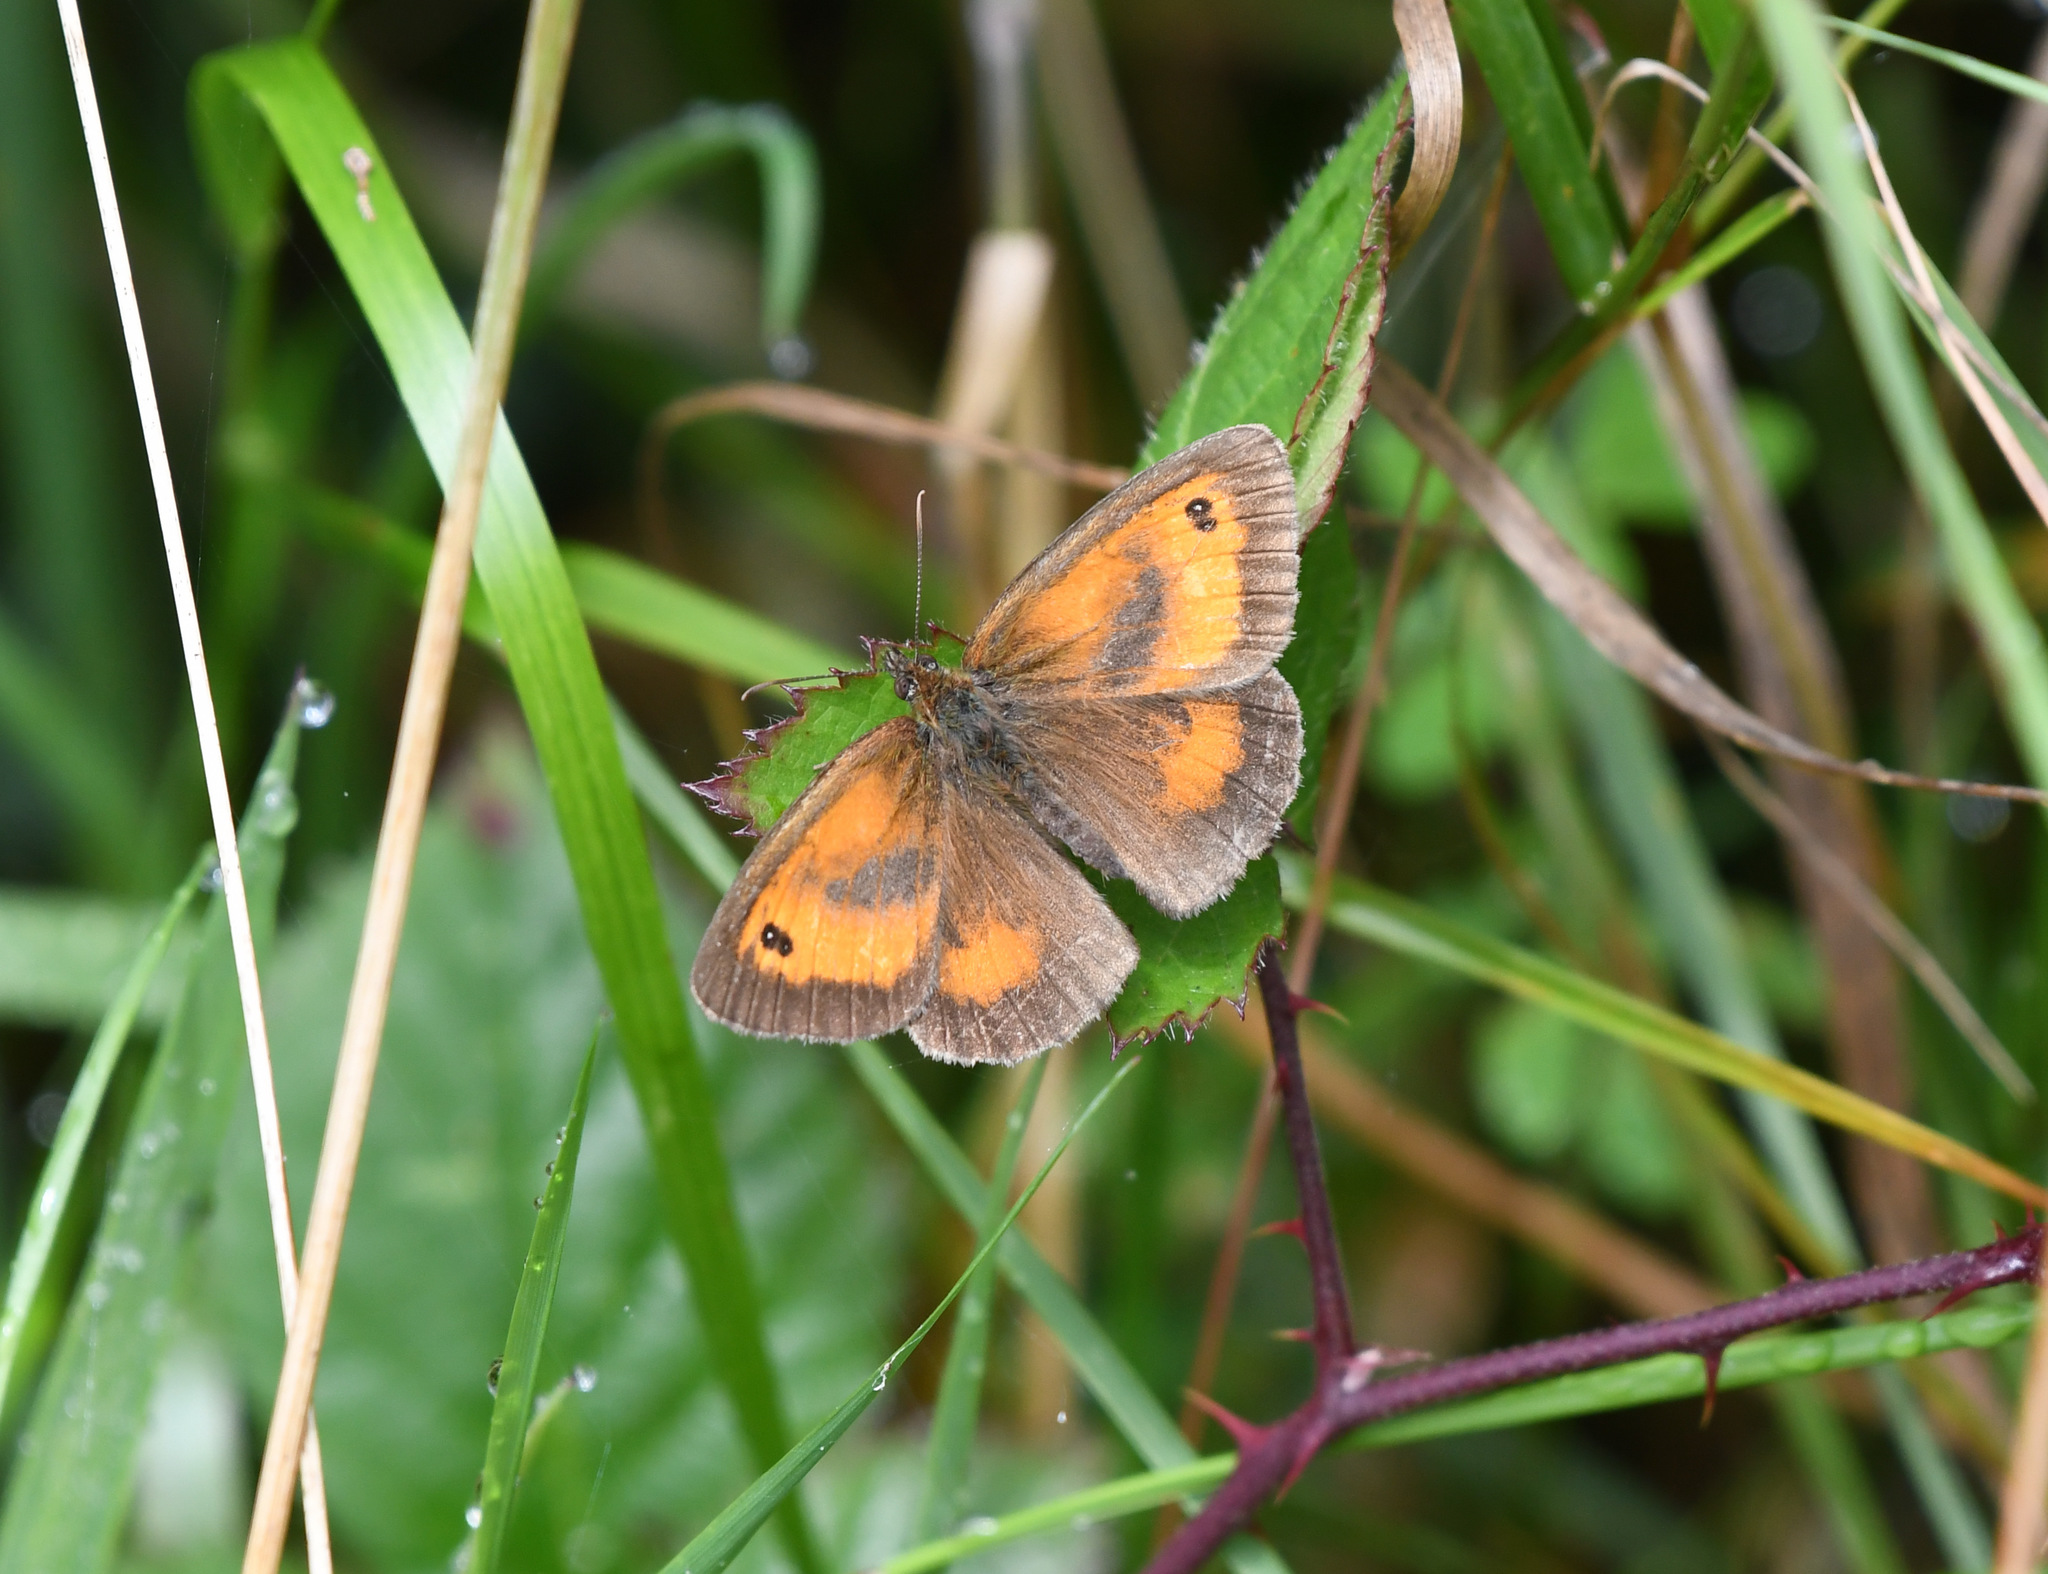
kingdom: Animalia
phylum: Arthropoda
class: Insecta
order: Lepidoptera
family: Nymphalidae
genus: Pyronia
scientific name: Pyronia tithonus
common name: Gatekeeper
